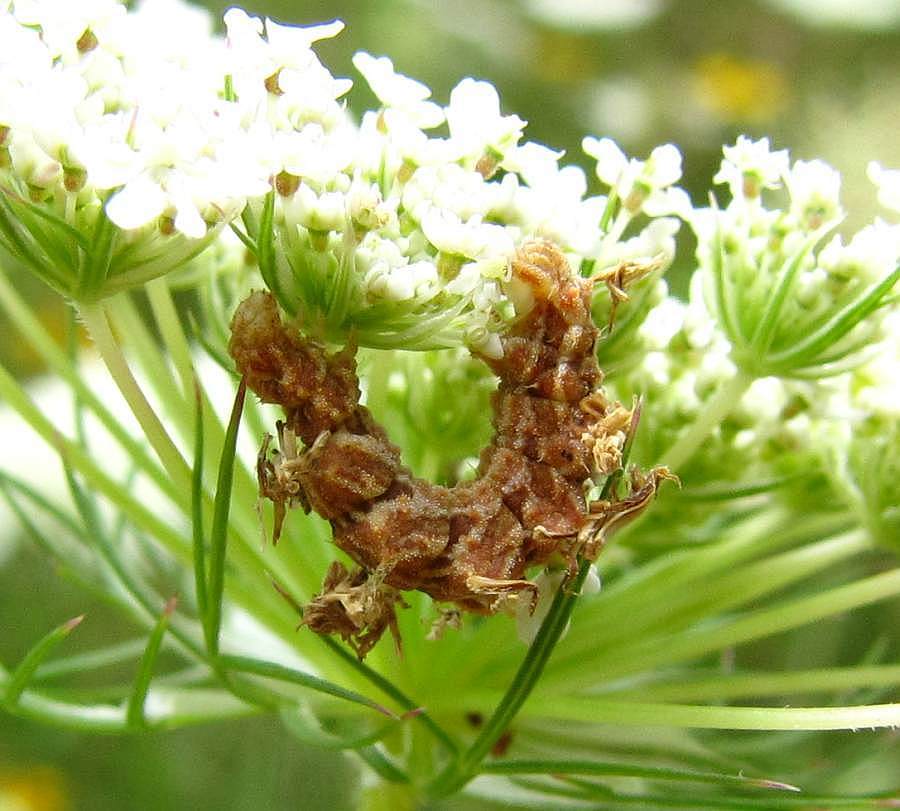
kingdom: Animalia
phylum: Arthropoda
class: Insecta
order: Lepidoptera
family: Geometridae
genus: Synchlora
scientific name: Synchlora aerata
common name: Wavy-lined emerald
